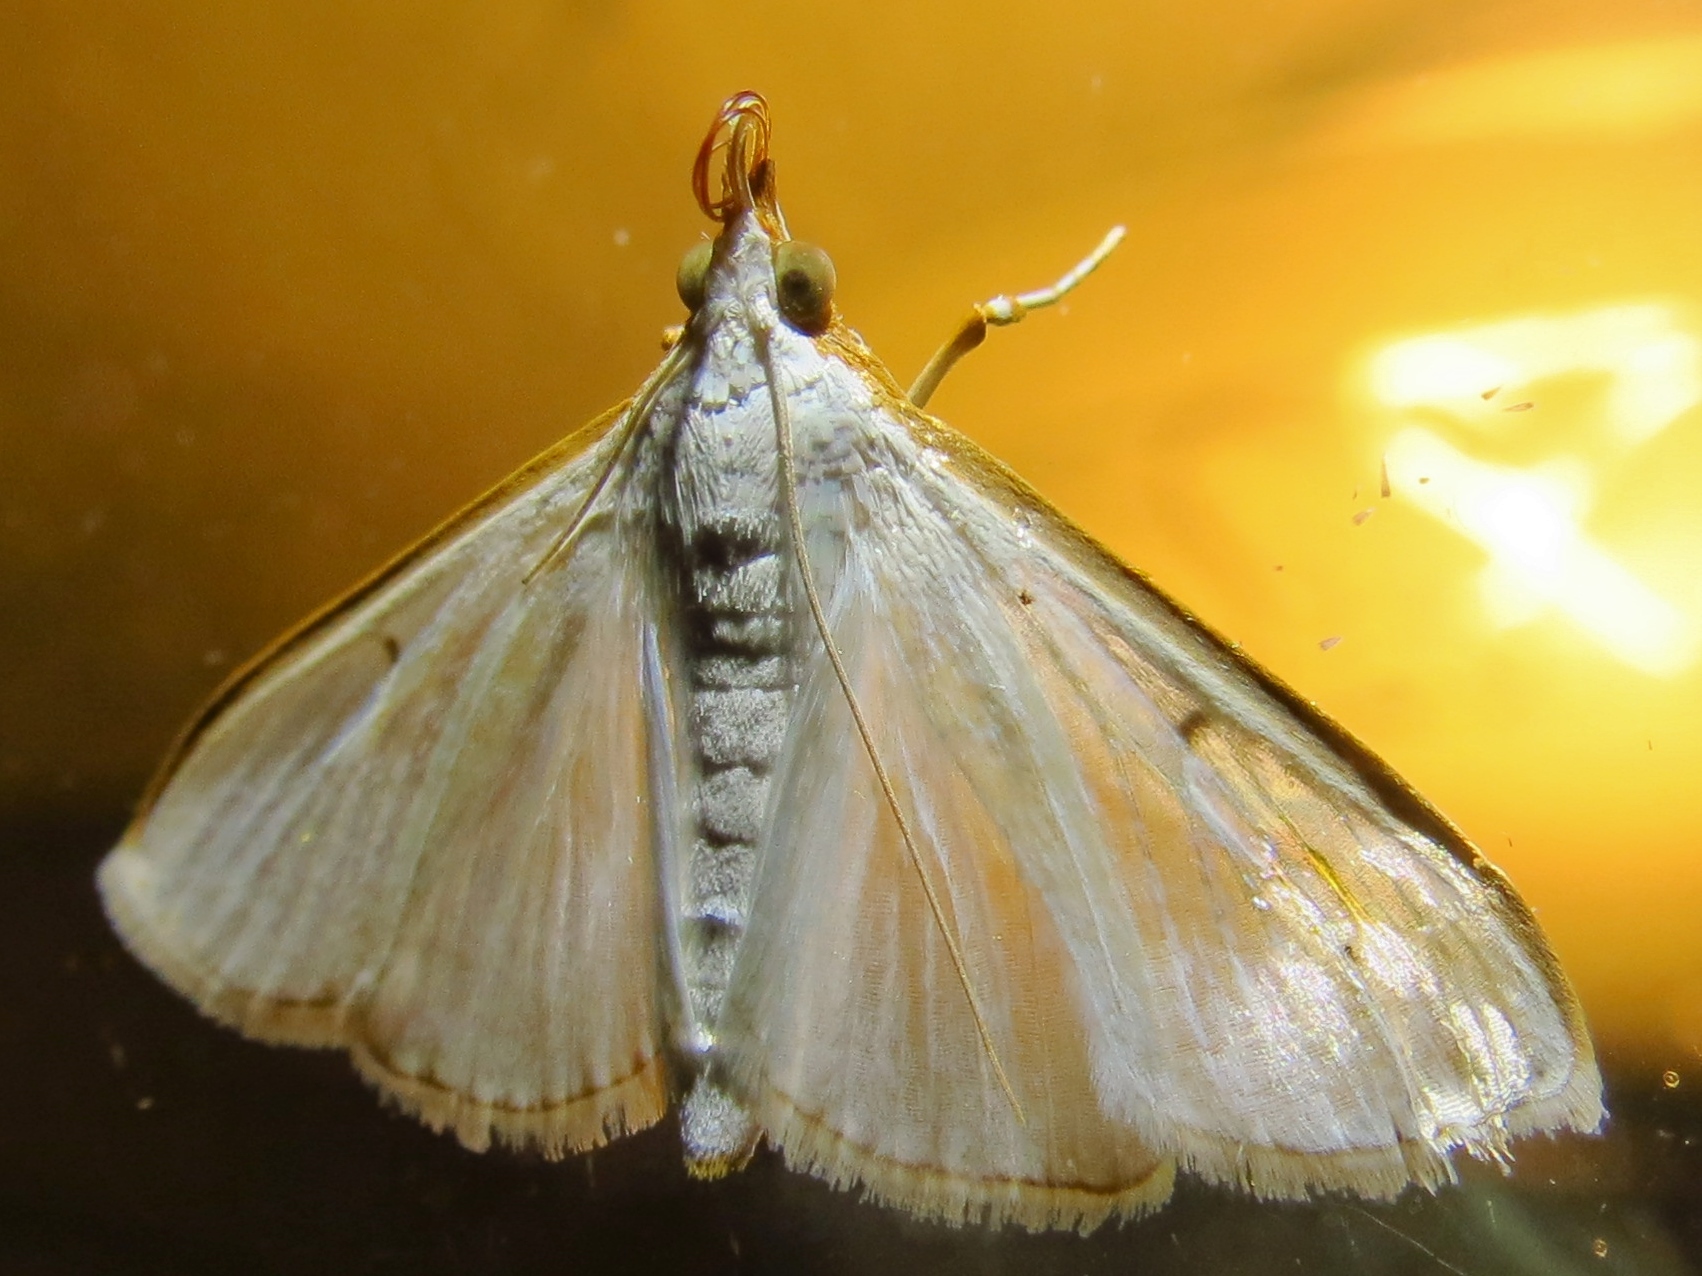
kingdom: Animalia
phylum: Arthropoda
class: Insecta
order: Lepidoptera
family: Crambidae
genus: Palpita
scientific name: Palpita quadristigmalis
